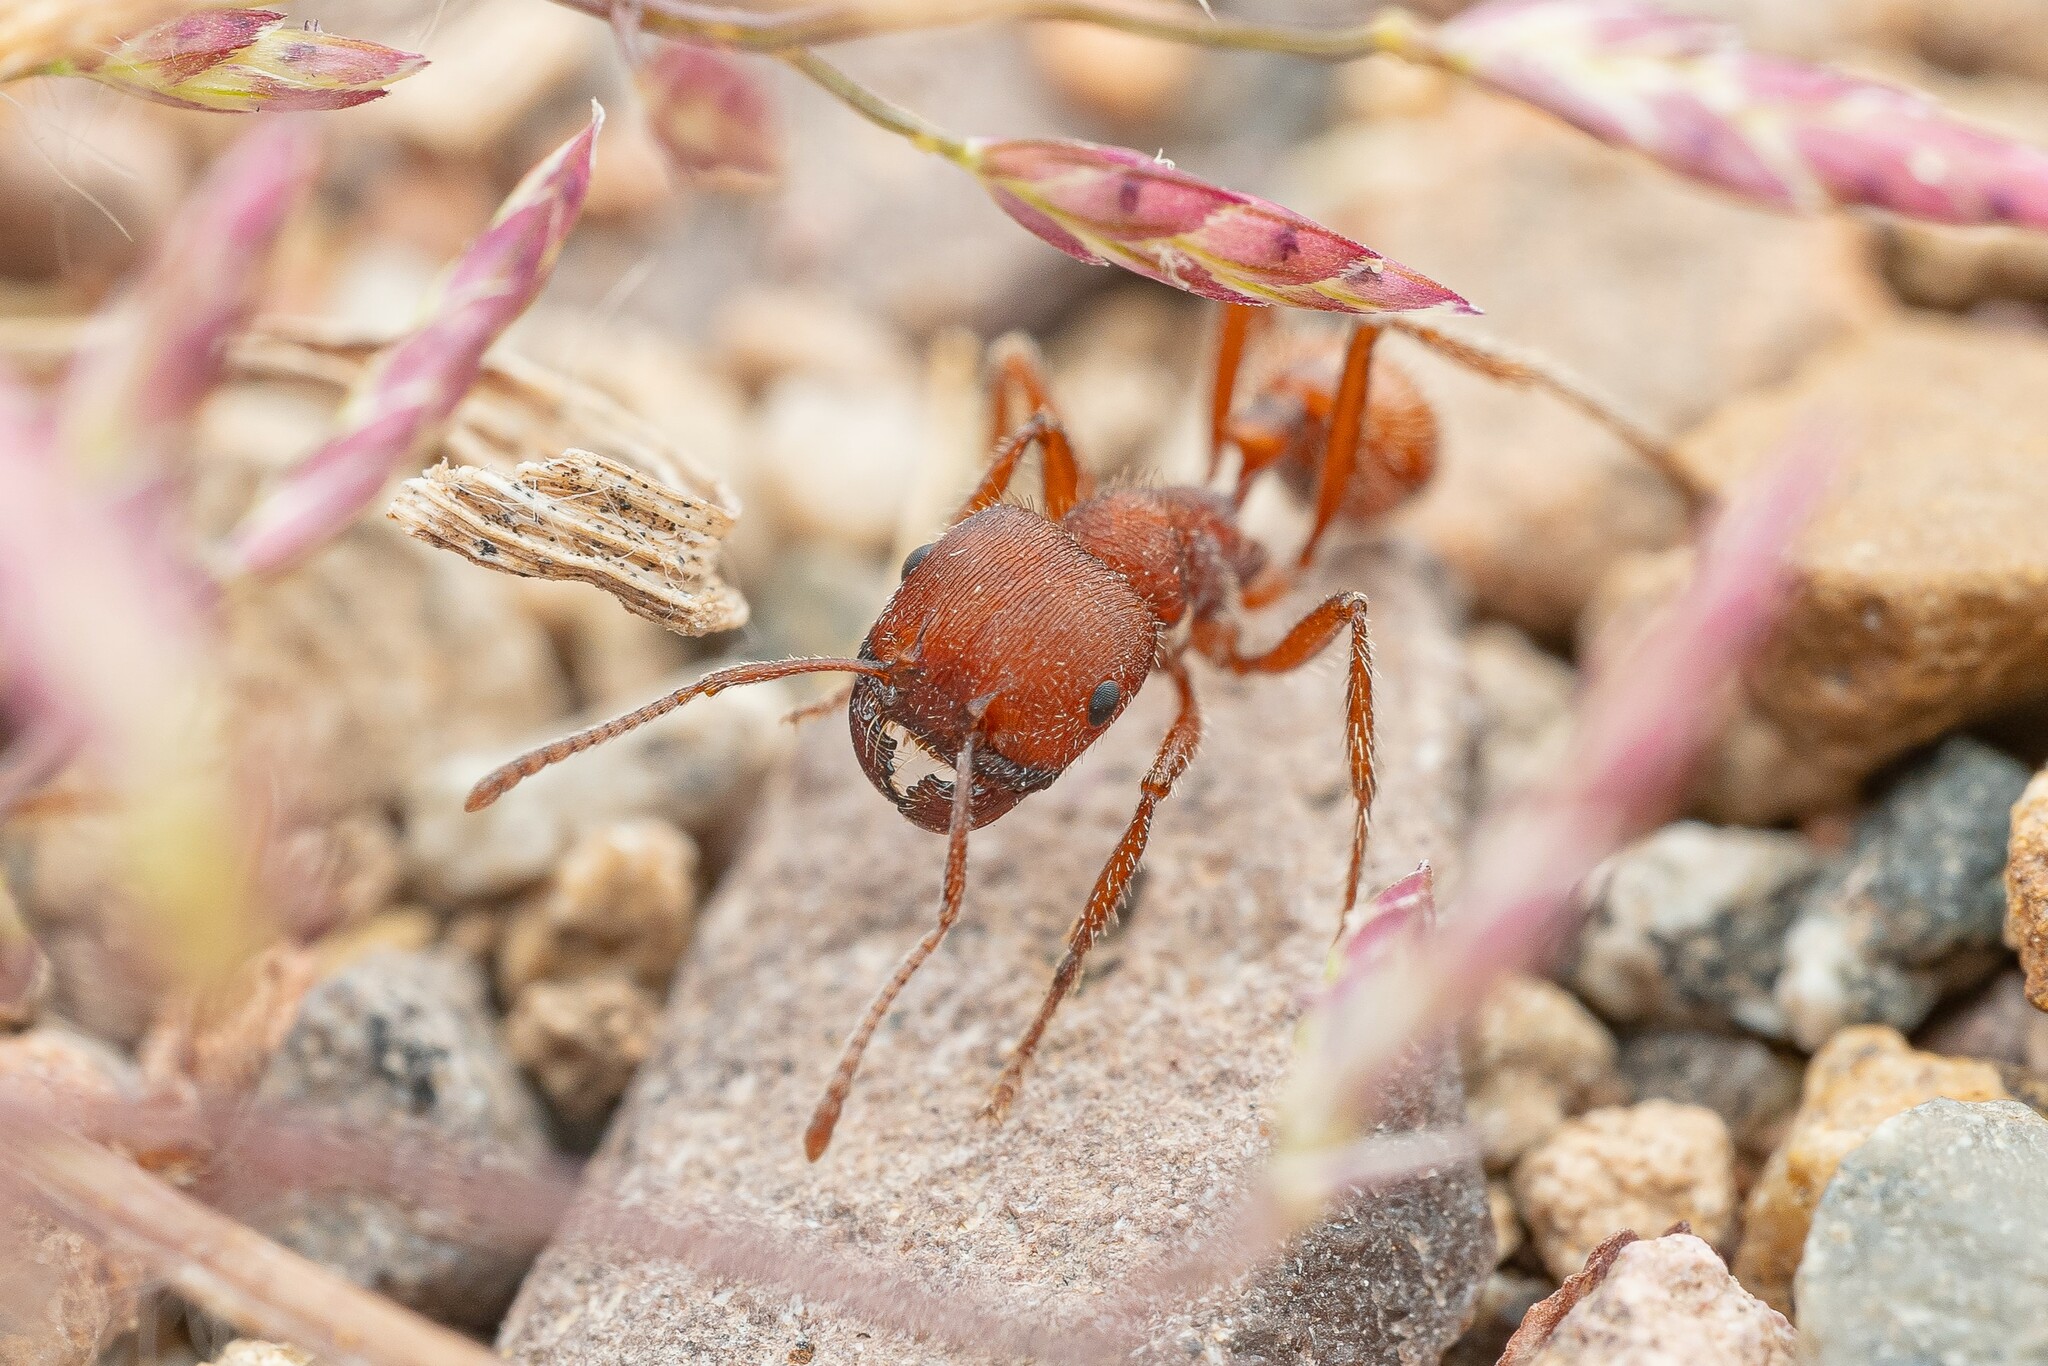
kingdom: Animalia
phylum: Arthropoda
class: Insecta
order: Hymenoptera
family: Formicidae
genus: Pogonomyrmex
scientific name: Pogonomyrmex occidentalis
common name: Western harvester ant
